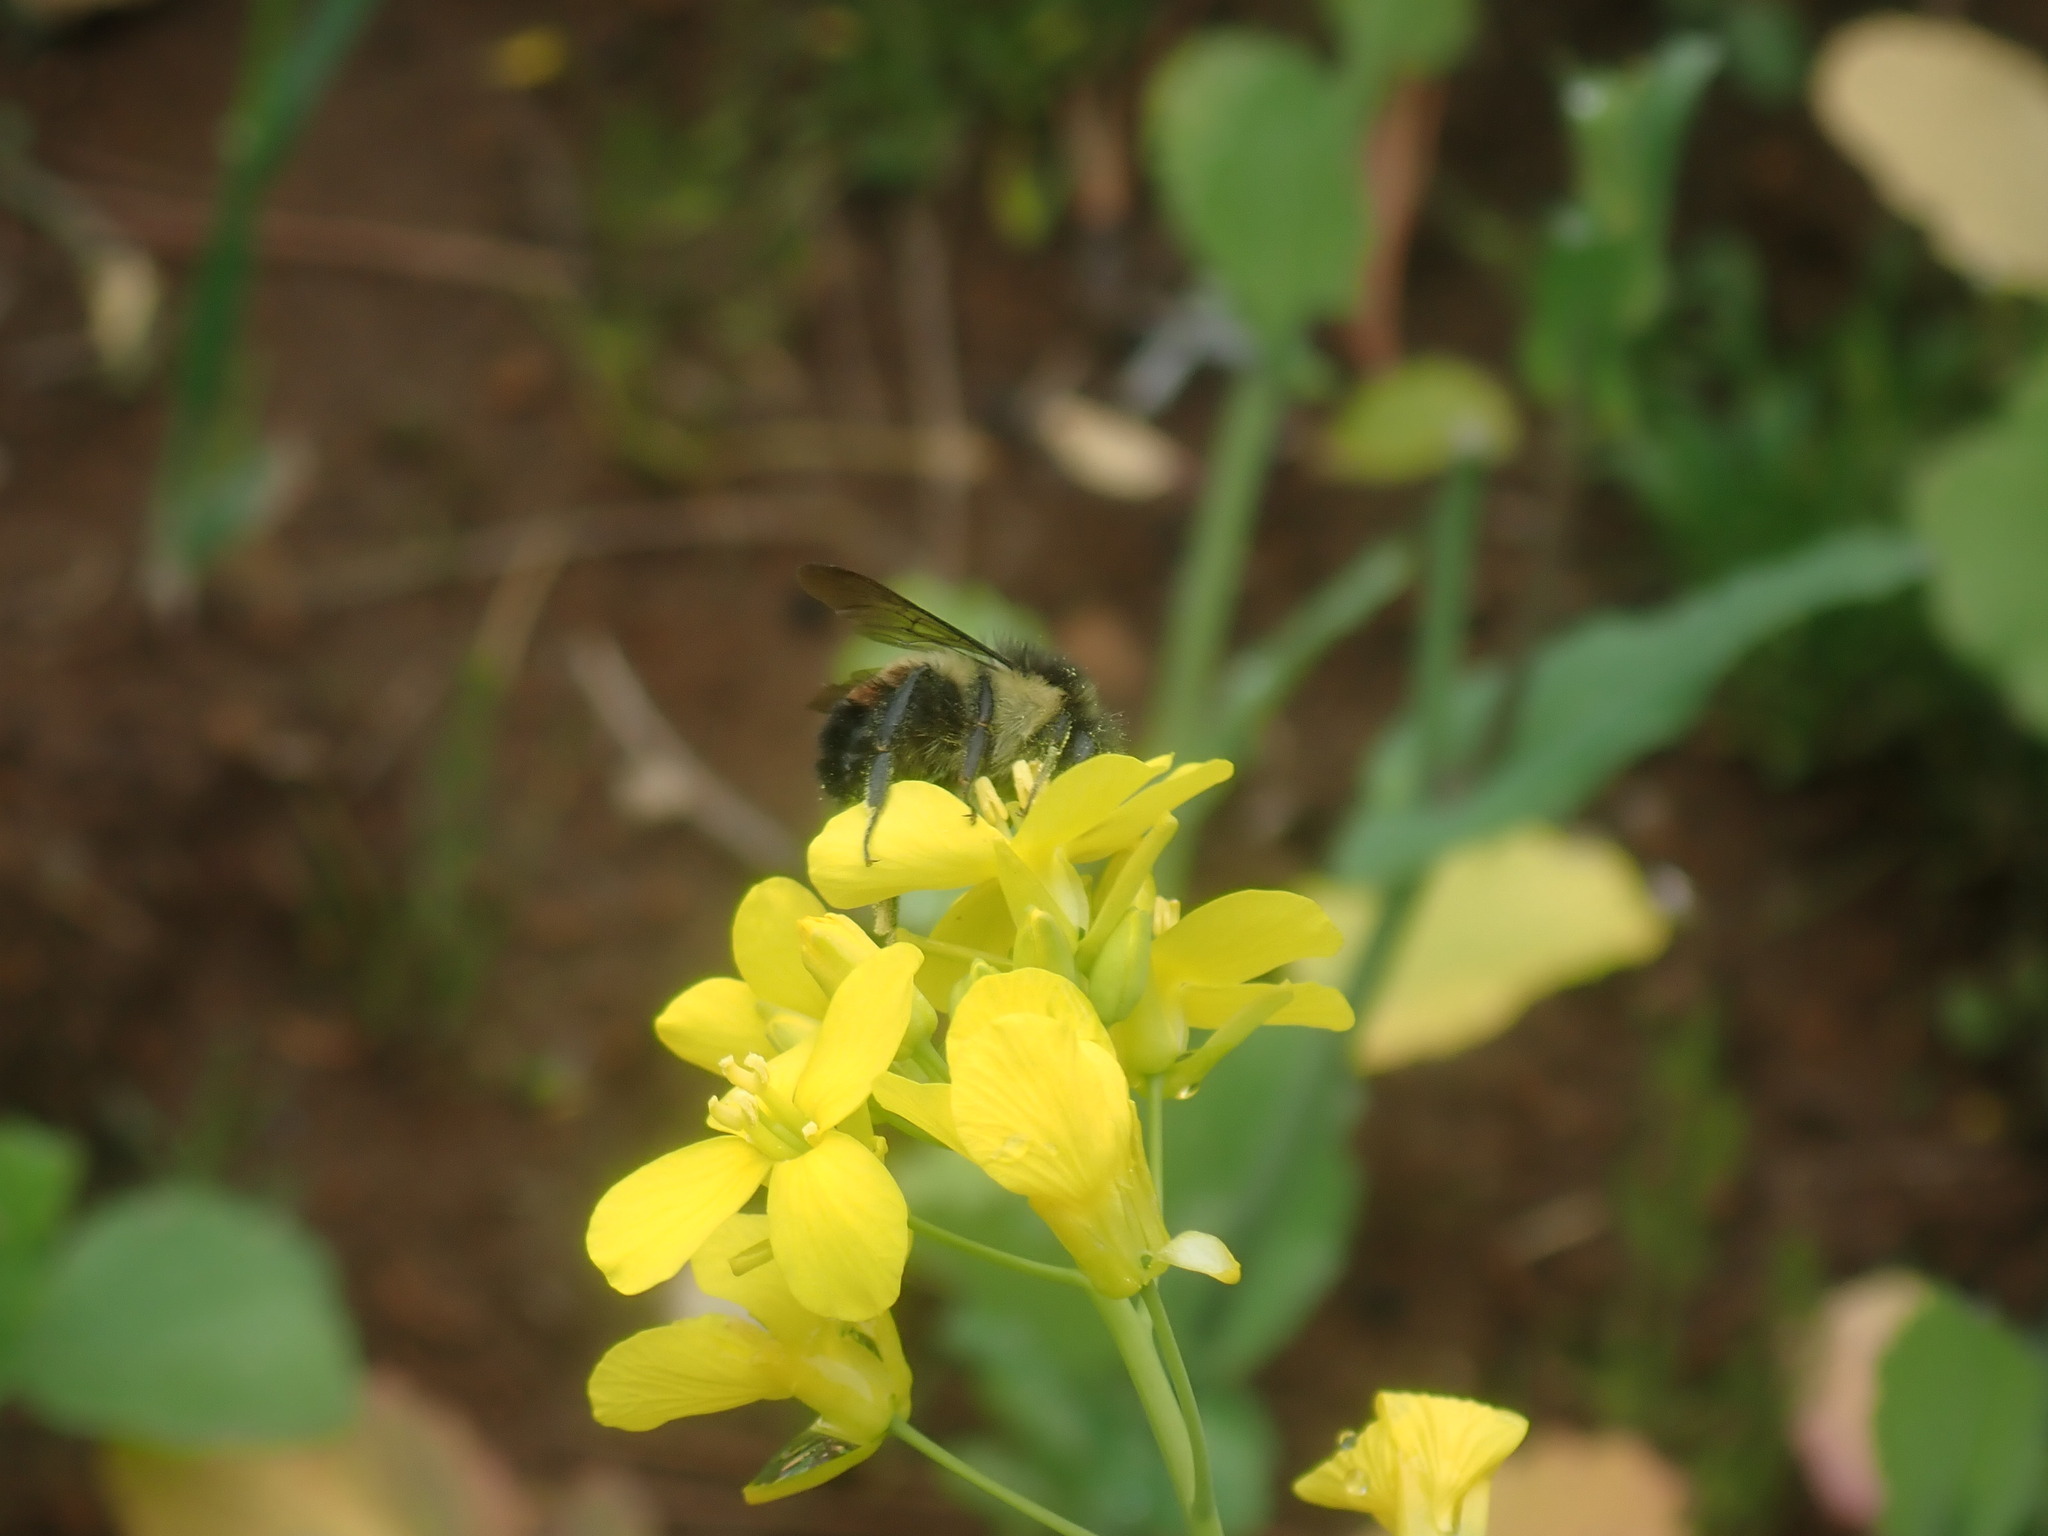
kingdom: Animalia
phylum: Arthropoda
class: Insecta
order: Hymenoptera
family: Apidae
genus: Bombus
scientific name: Bombus ephippiatus
